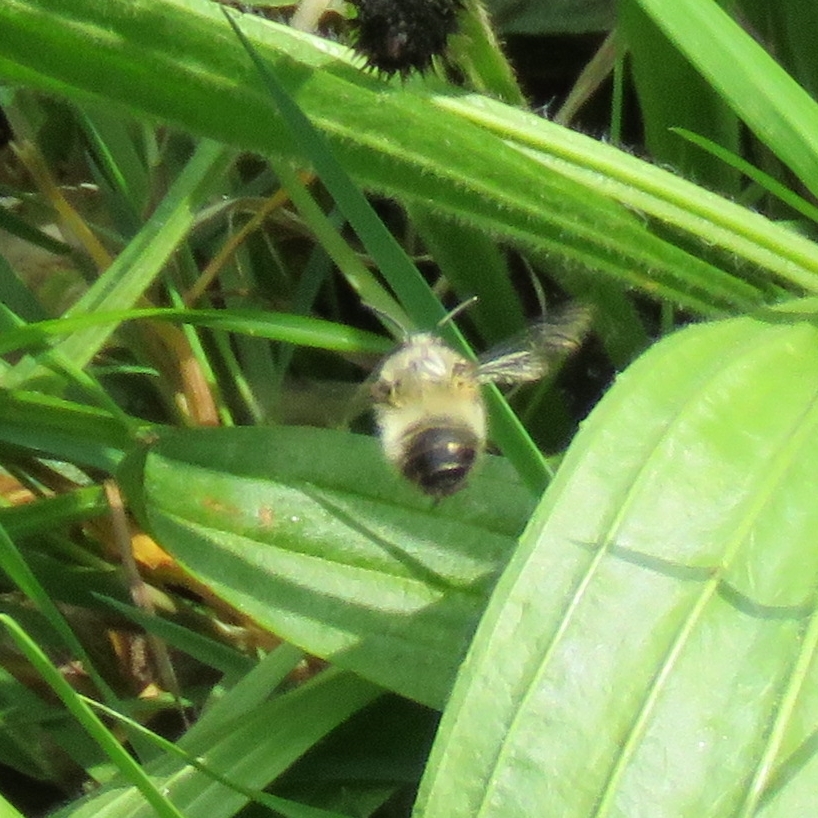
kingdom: Animalia
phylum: Arthropoda
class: Insecta
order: Hymenoptera
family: Apidae
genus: Anthophora
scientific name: Anthophora plumipes
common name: Hairy-footed flower bee
